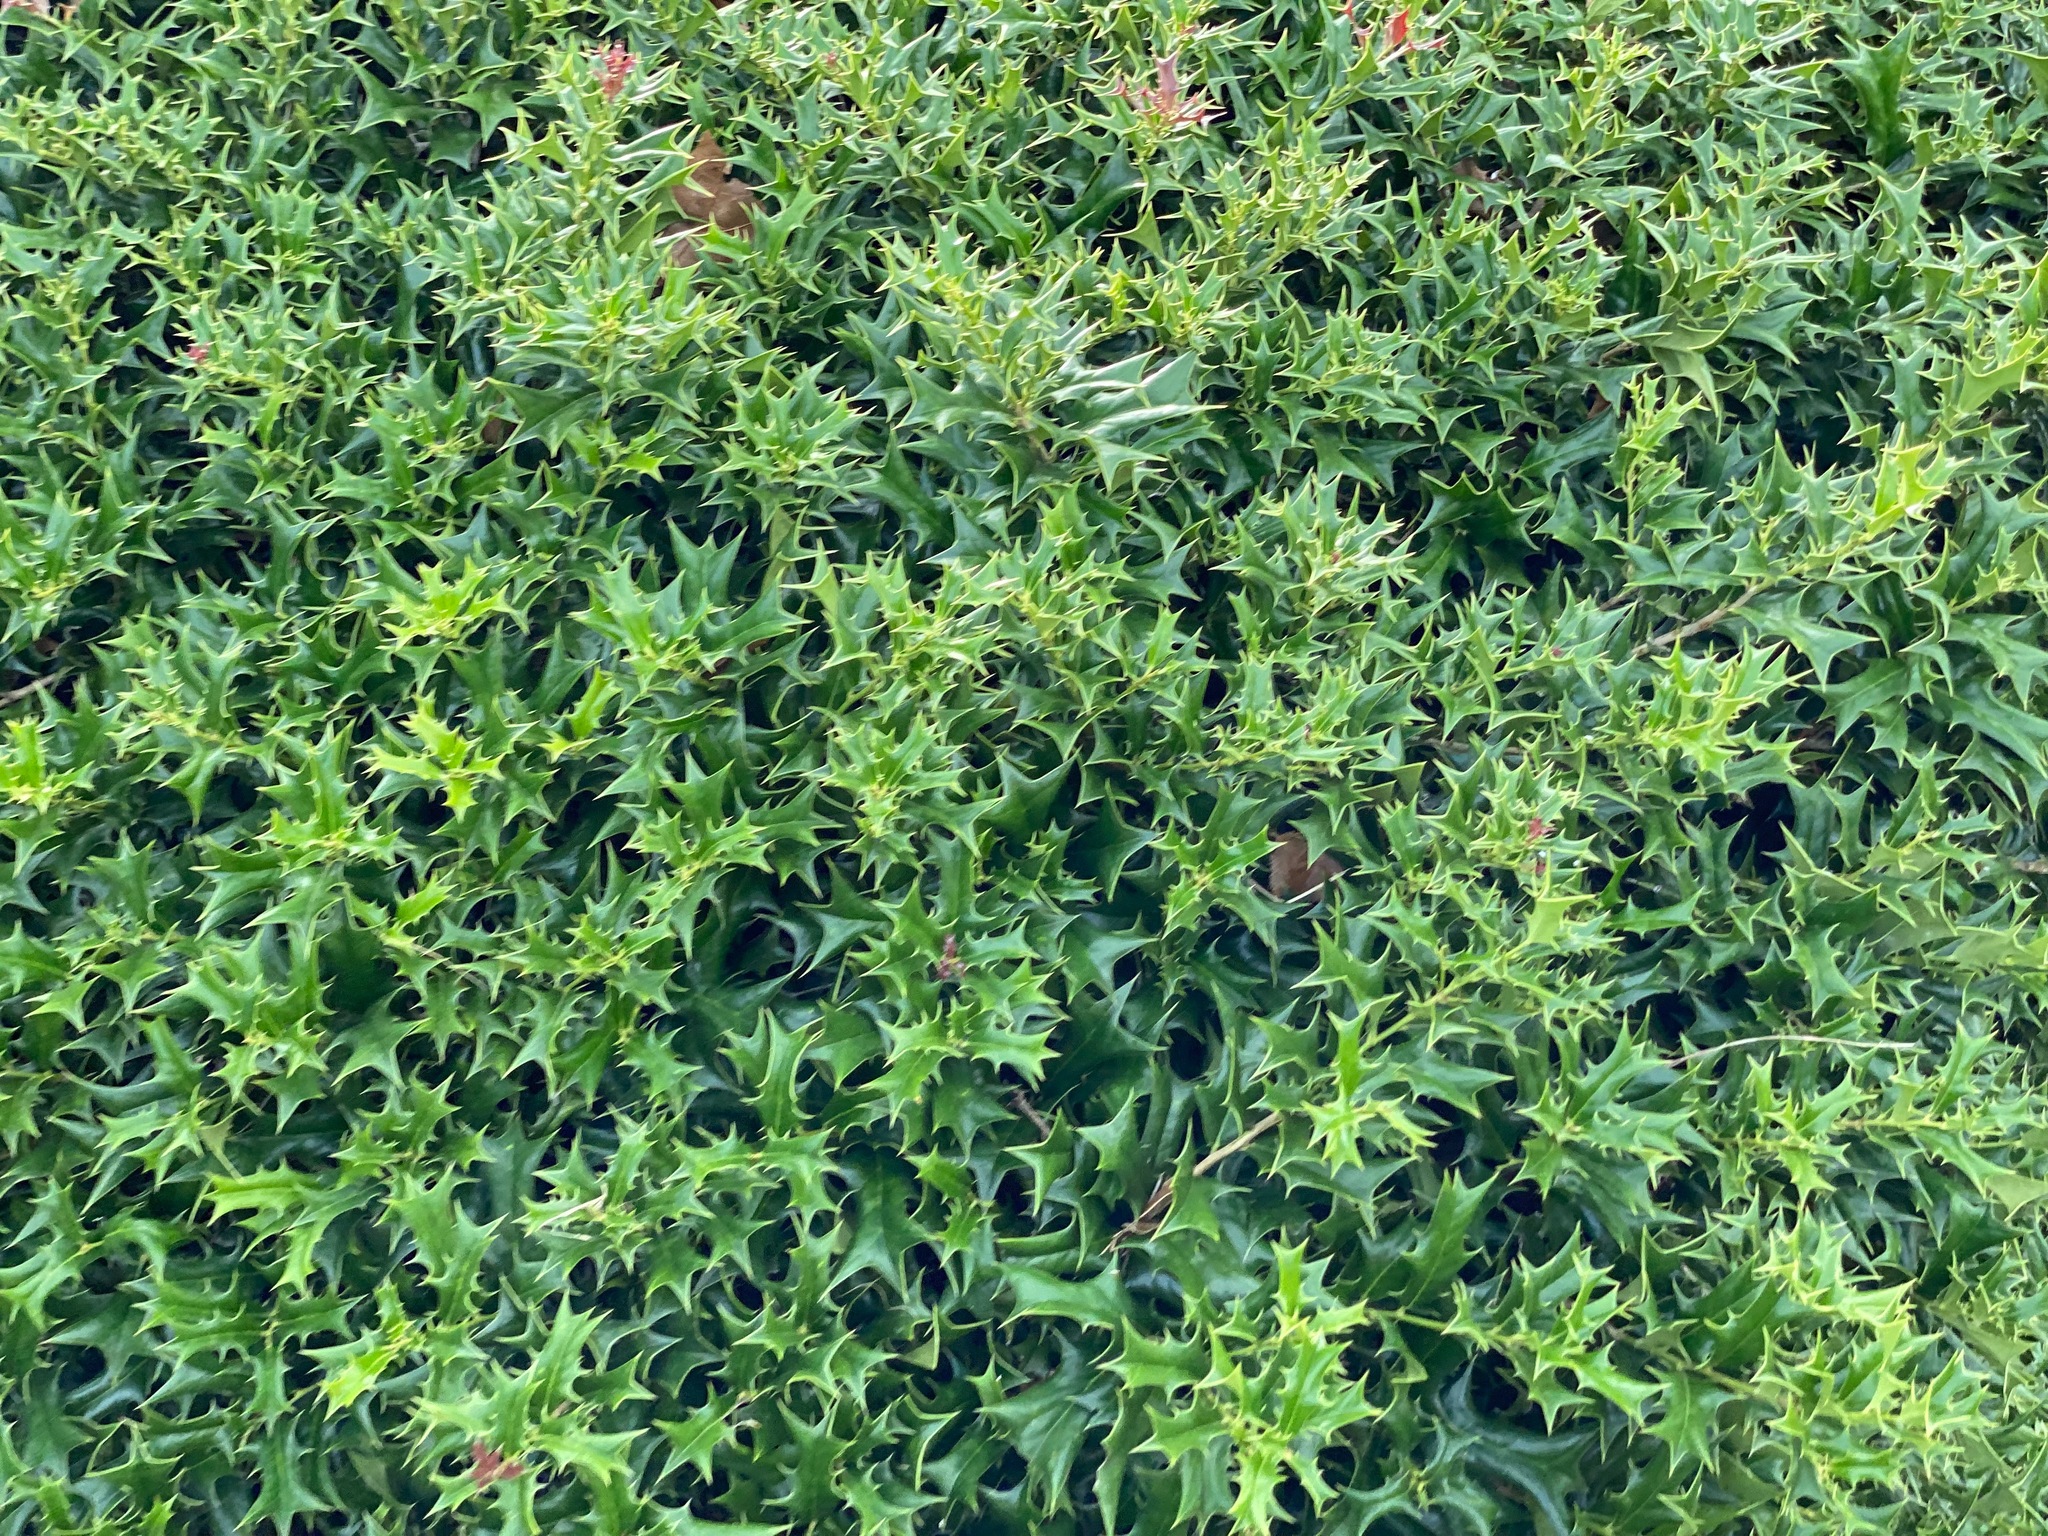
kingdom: Plantae
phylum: Tracheophyta
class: Magnoliopsida
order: Aquifoliales
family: Aquifoliaceae
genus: Ilex
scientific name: Ilex cornuta
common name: Chinese holly
